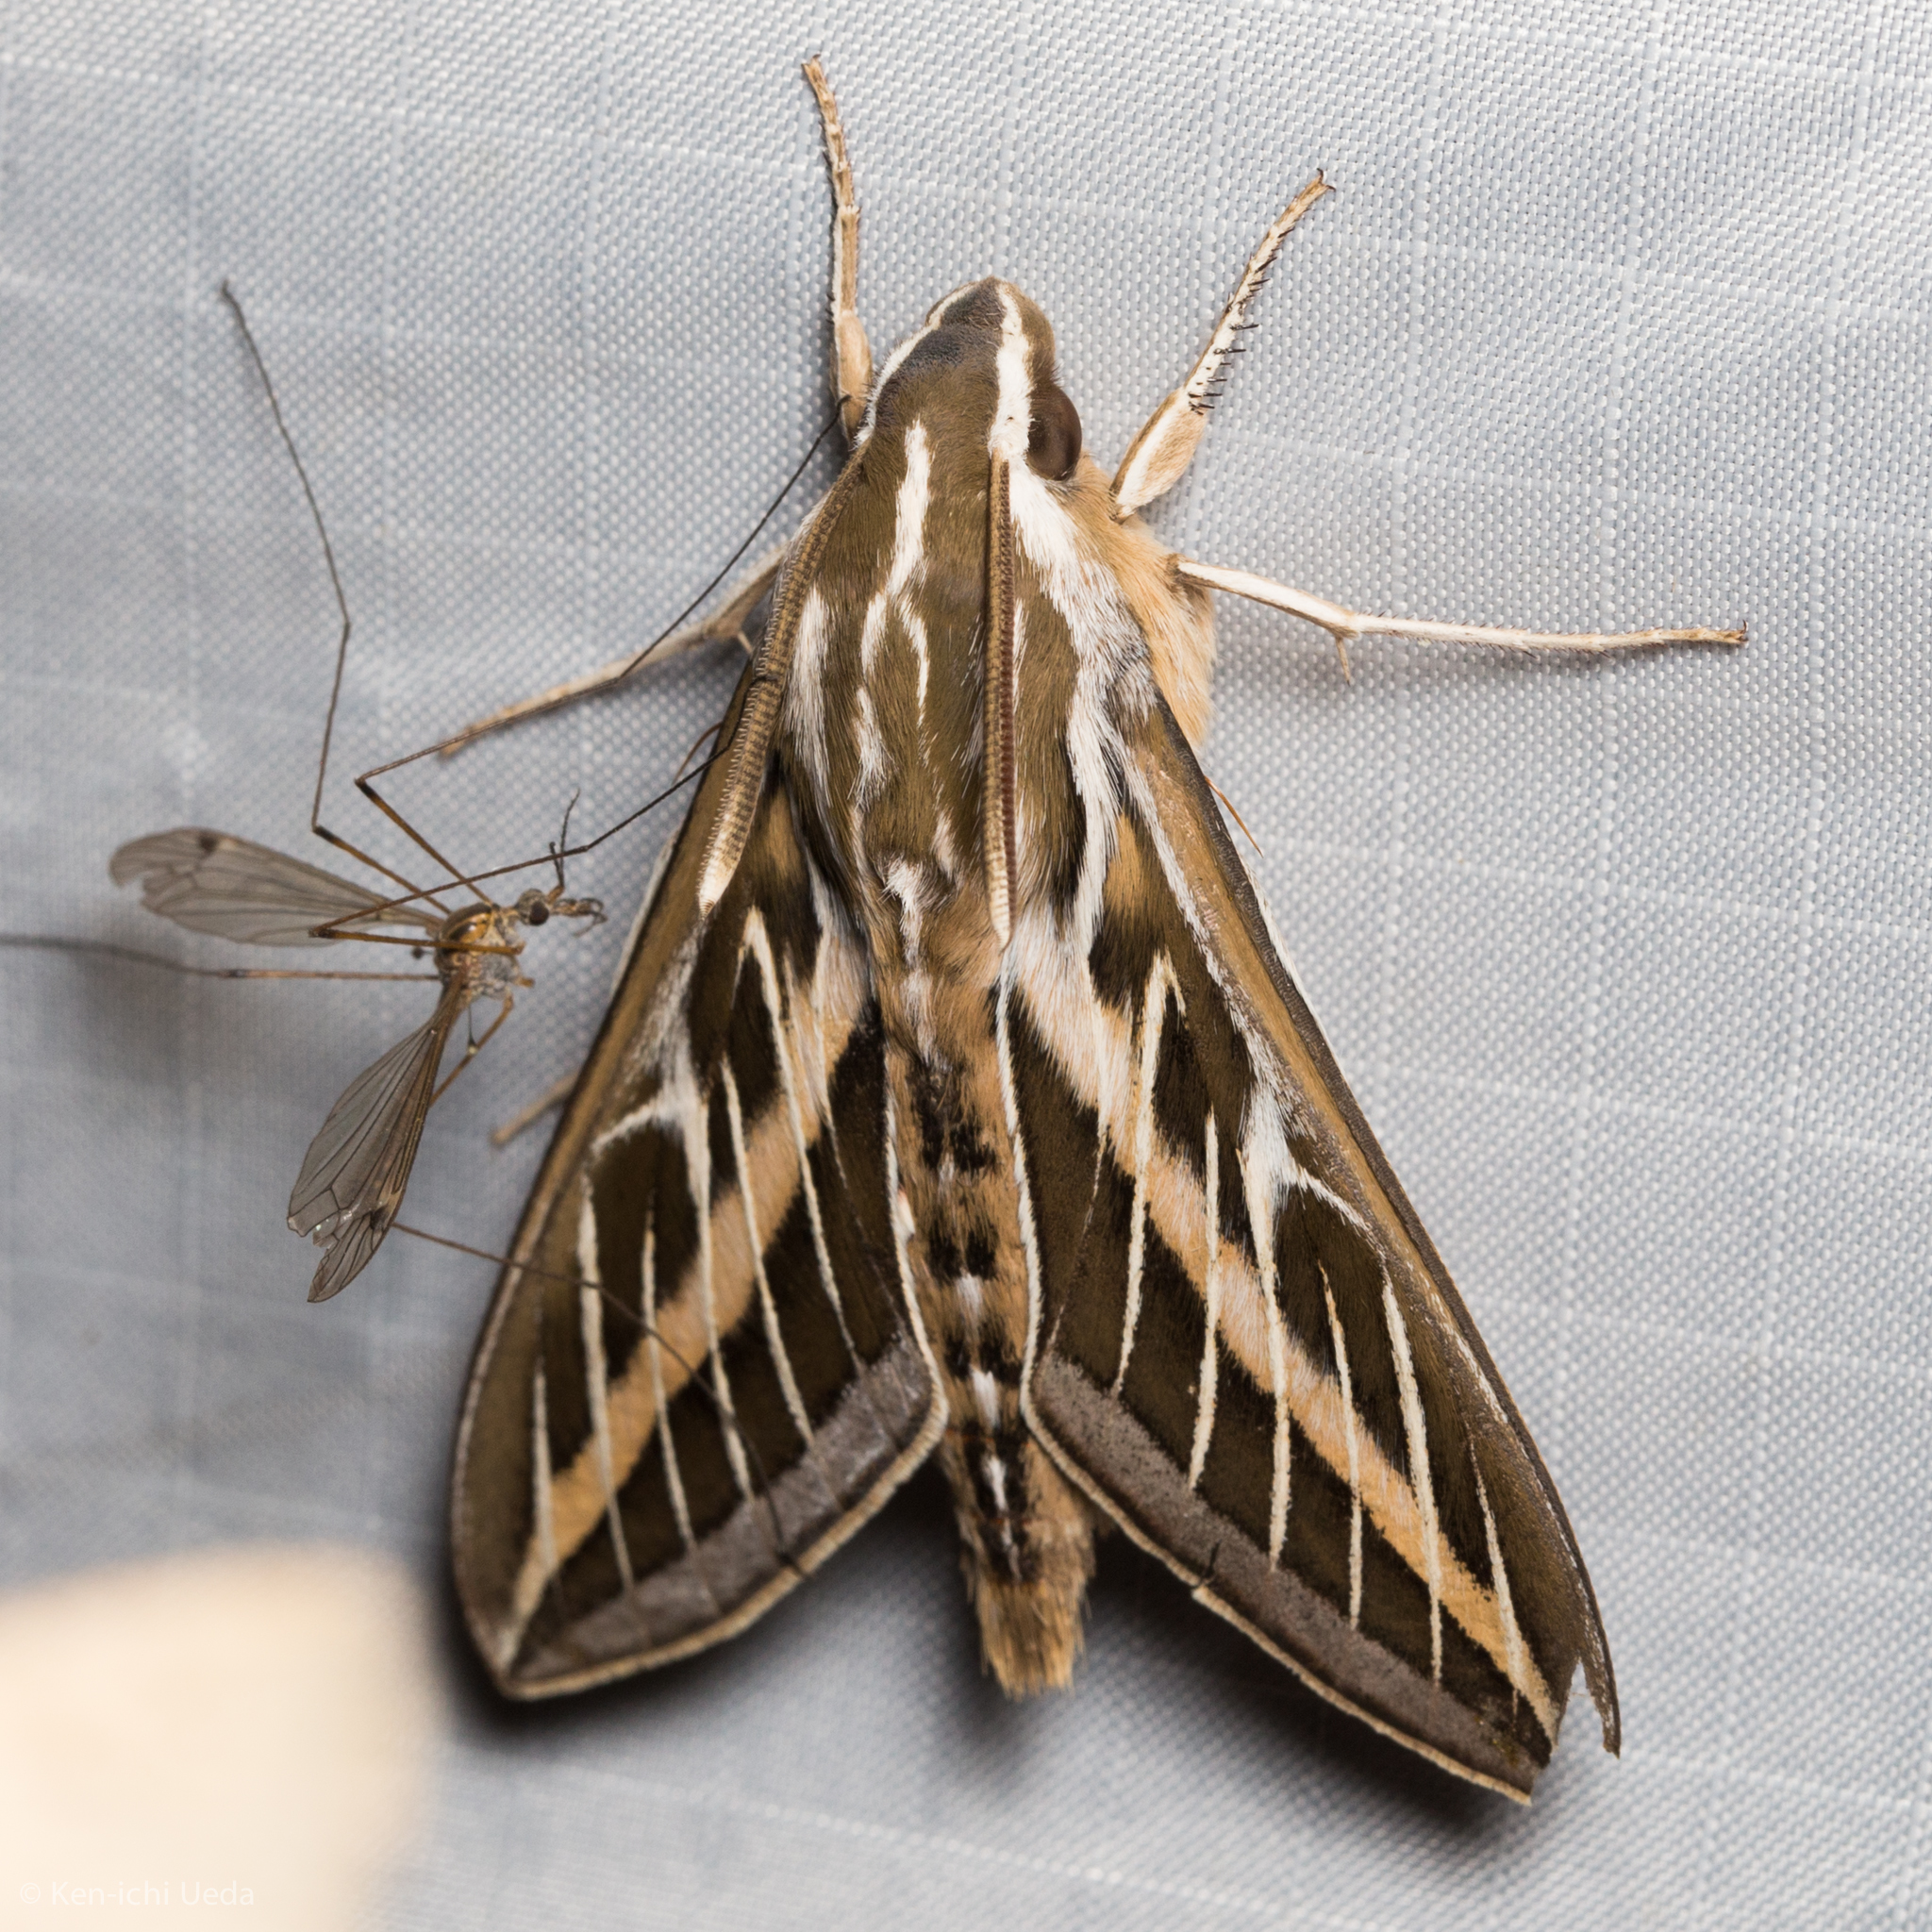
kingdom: Animalia
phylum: Arthropoda
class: Insecta
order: Lepidoptera
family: Sphingidae
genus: Hyles
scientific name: Hyles lineata
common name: White-lined sphinx
